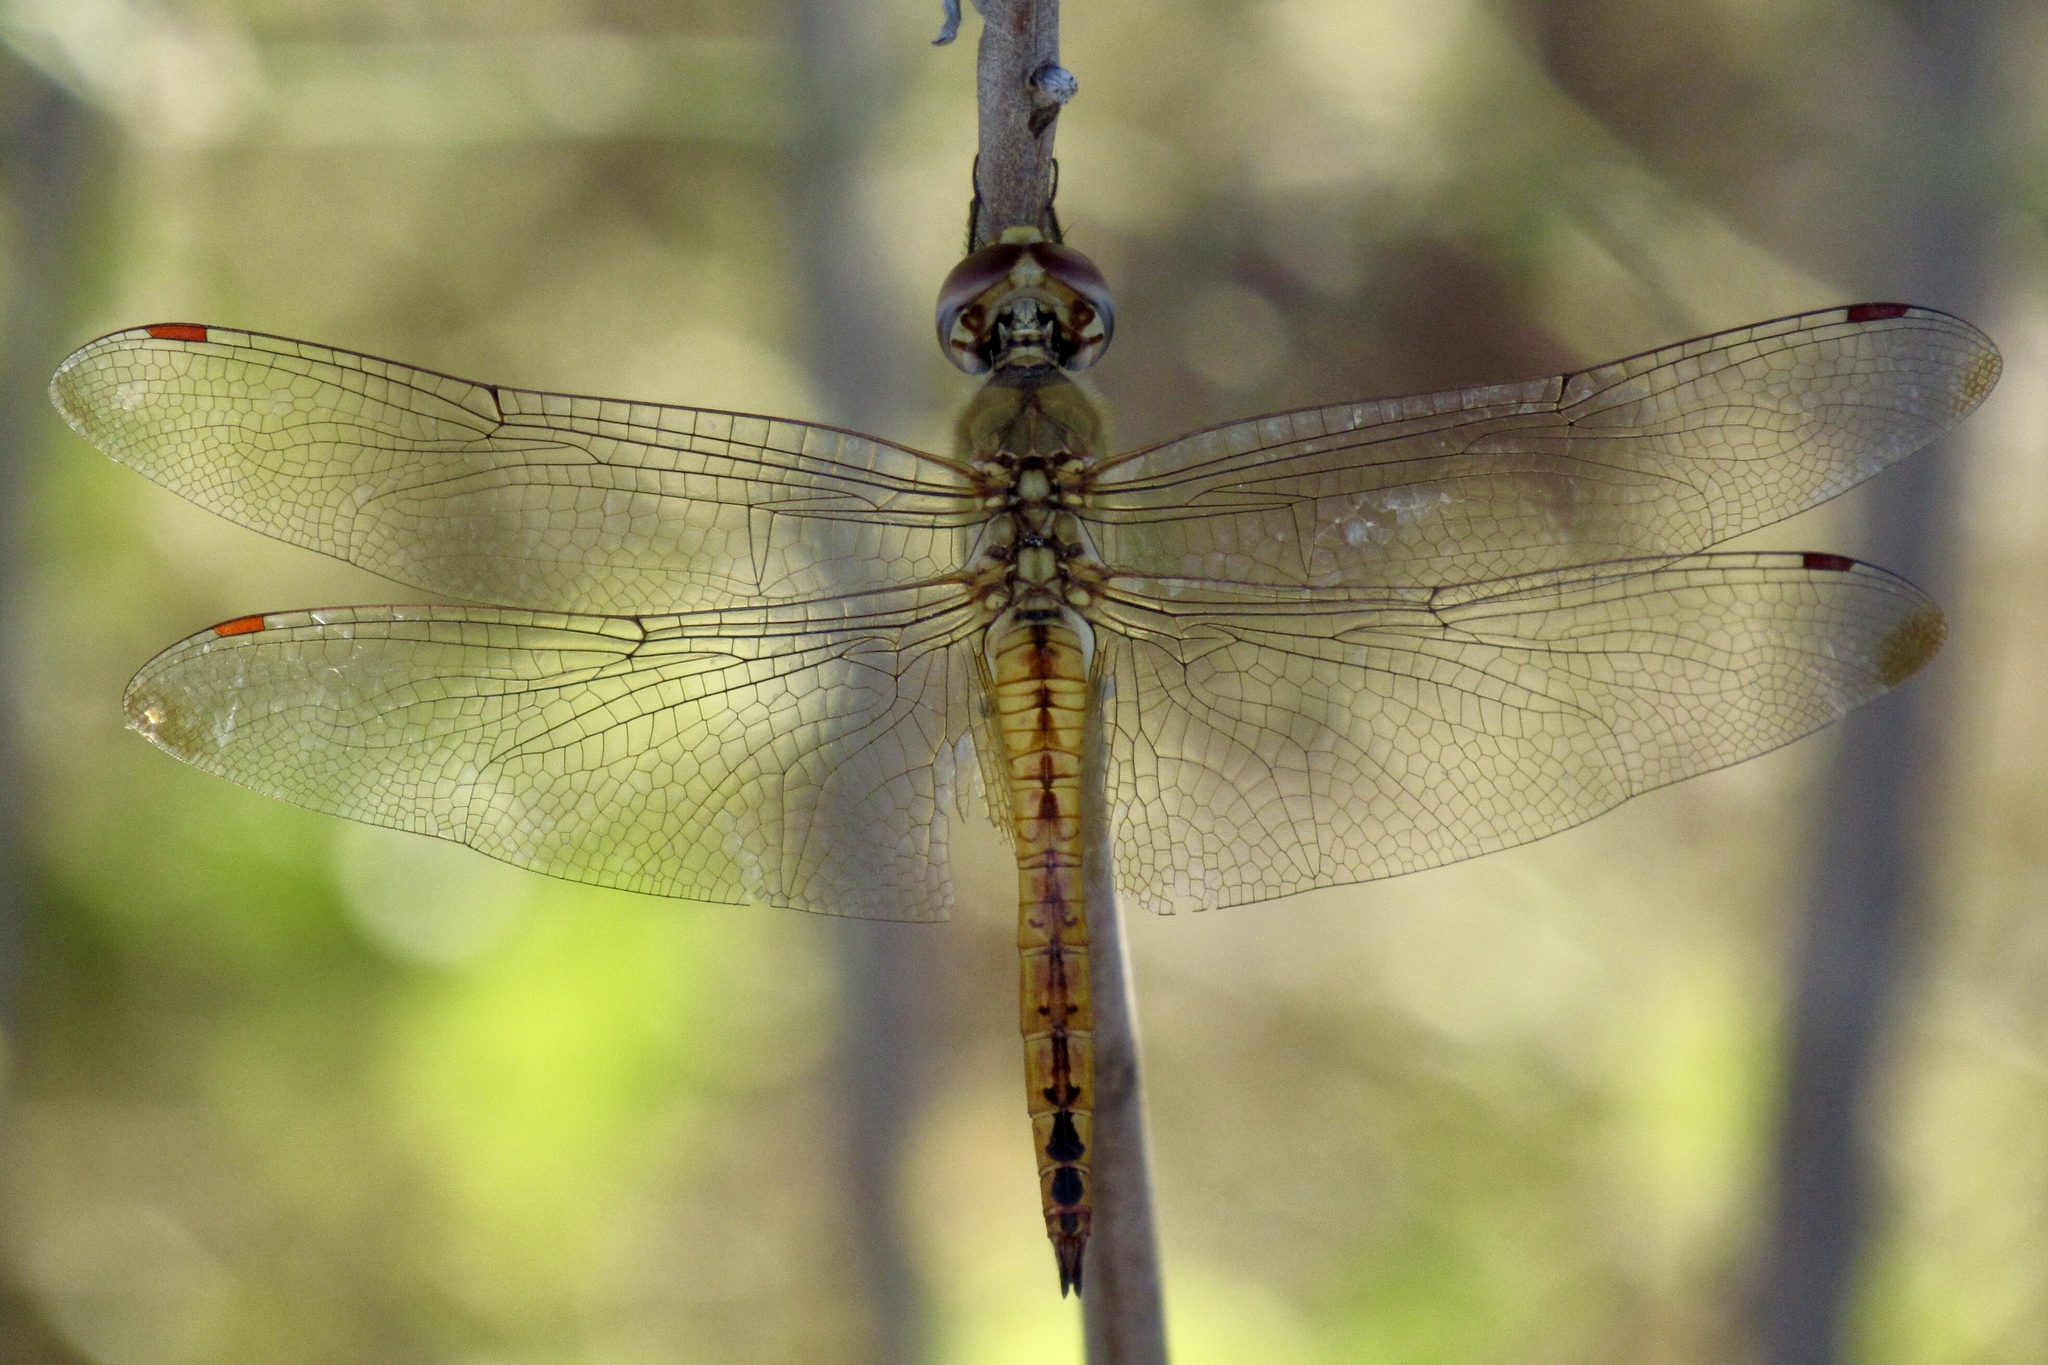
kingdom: Animalia
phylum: Arthropoda
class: Insecta
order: Odonata
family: Libellulidae
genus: Pantala
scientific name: Pantala flavescens
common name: Wandering glider
